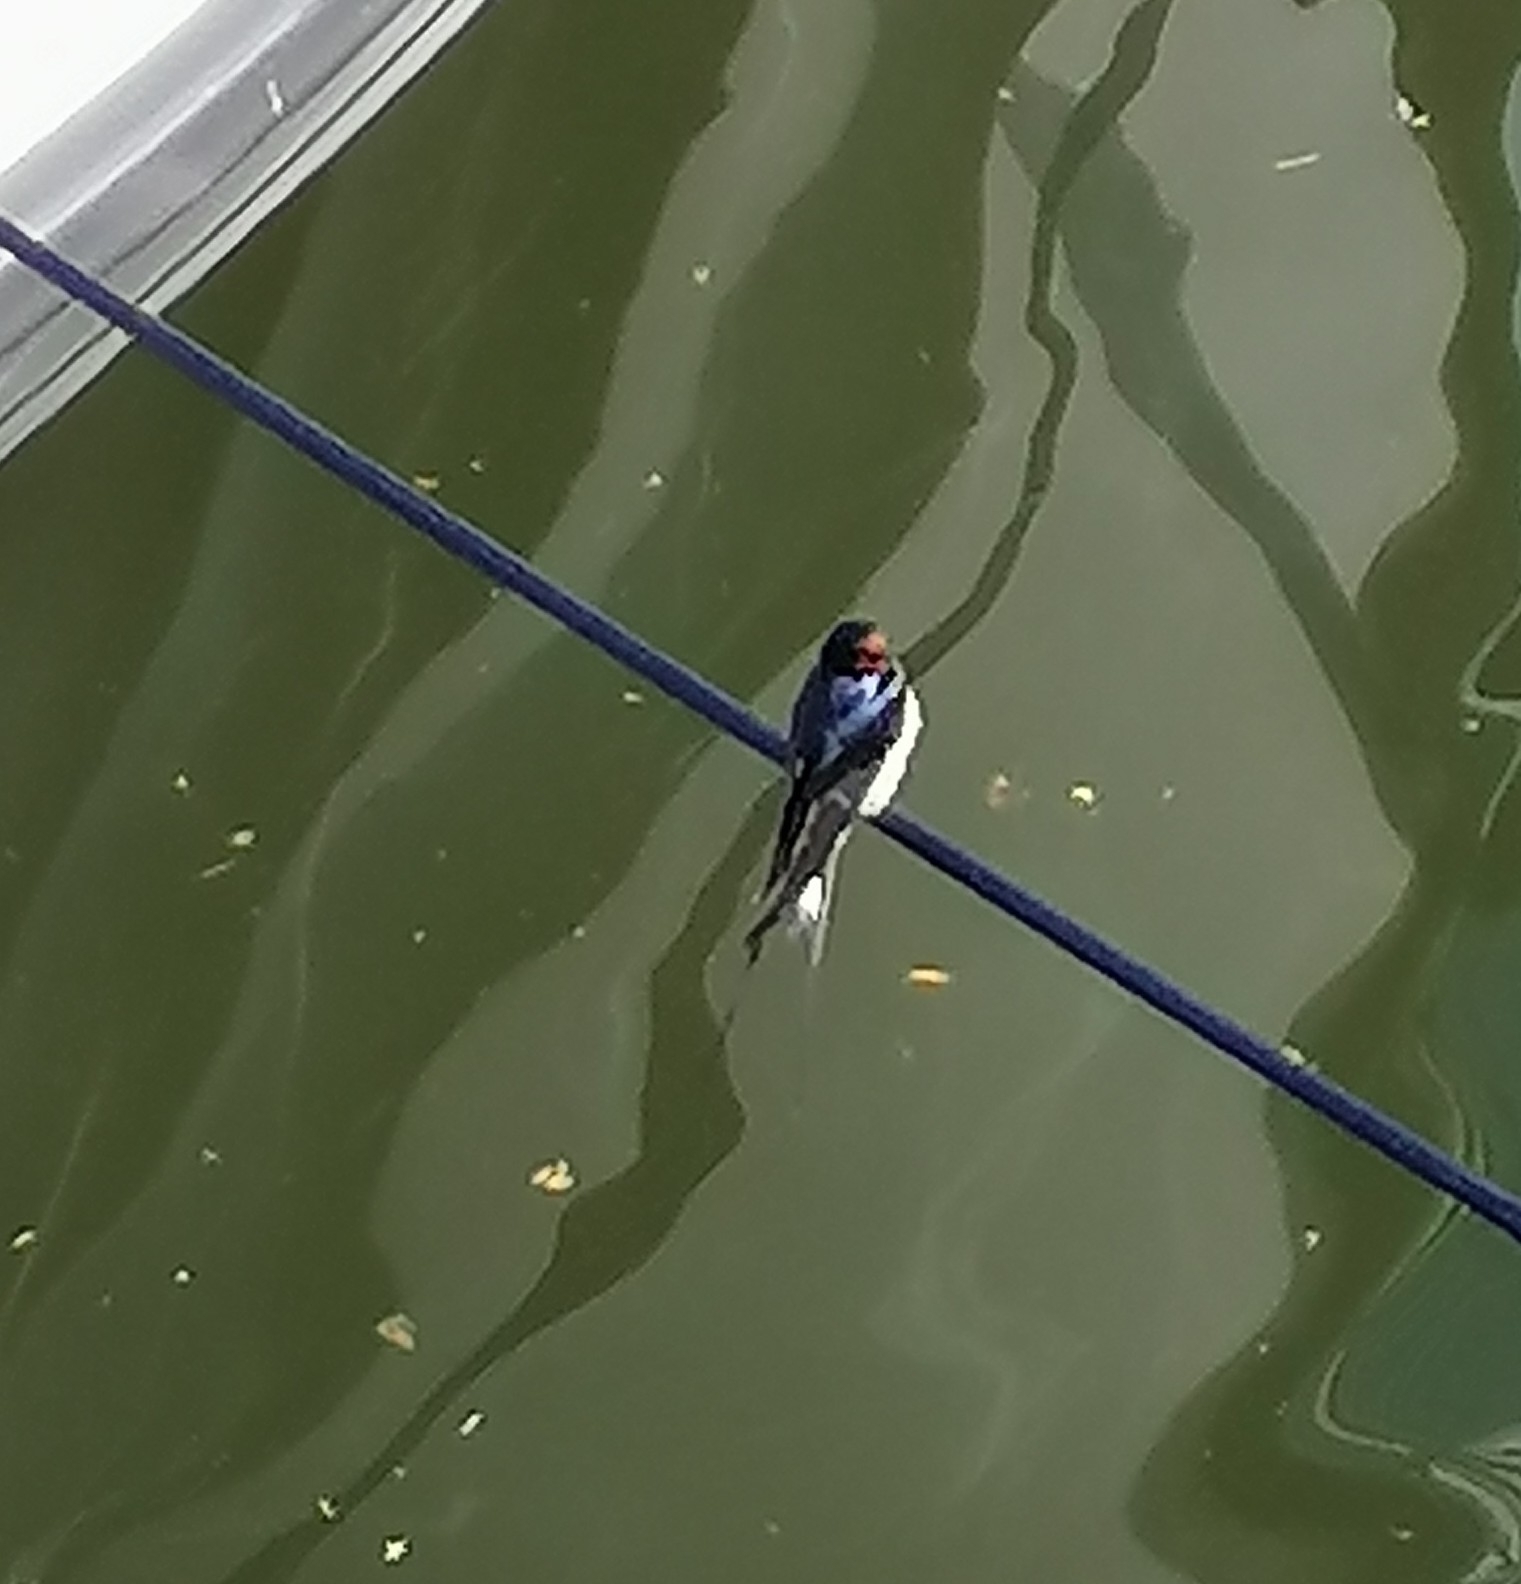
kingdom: Animalia
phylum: Chordata
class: Aves
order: Passeriformes
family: Hirundinidae
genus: Hirundo
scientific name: Hirundo rustica
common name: Barn swallow
